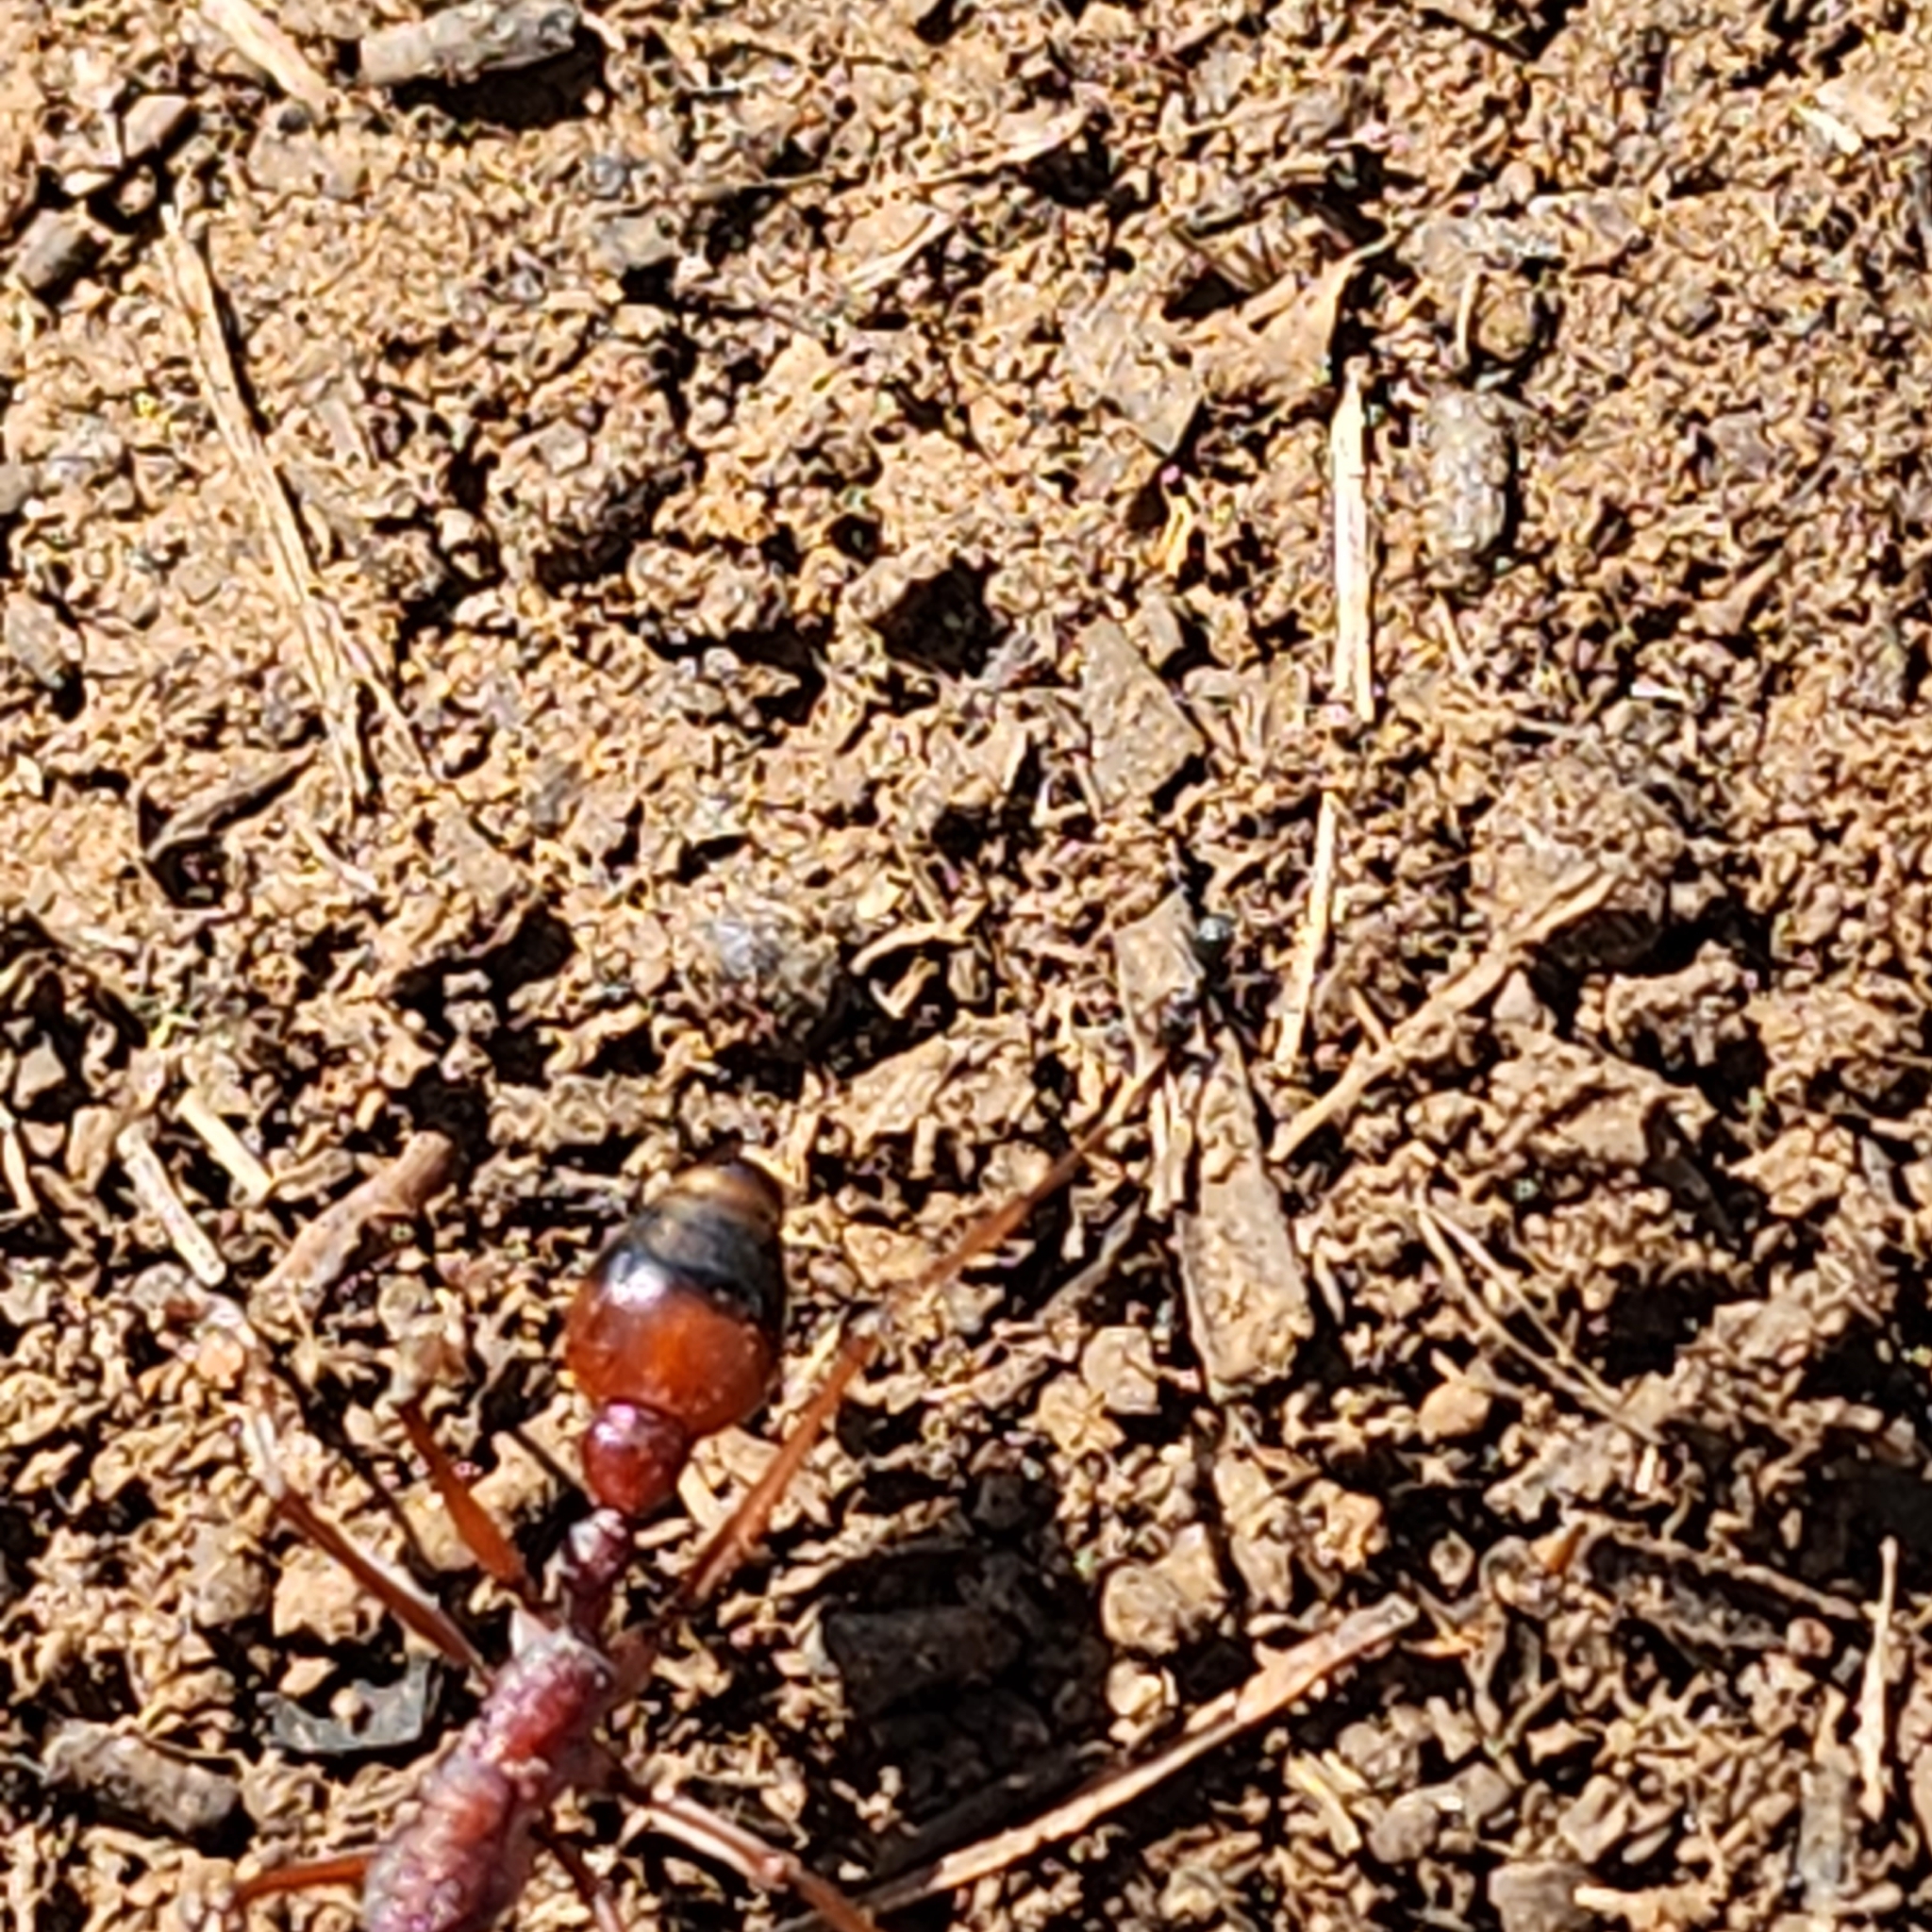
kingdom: Animalia
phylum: Arthropoda
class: Insecta
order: Hymenoptera
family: Formicidae
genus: Myrmecia
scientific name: Myrmecia nigriscapa
